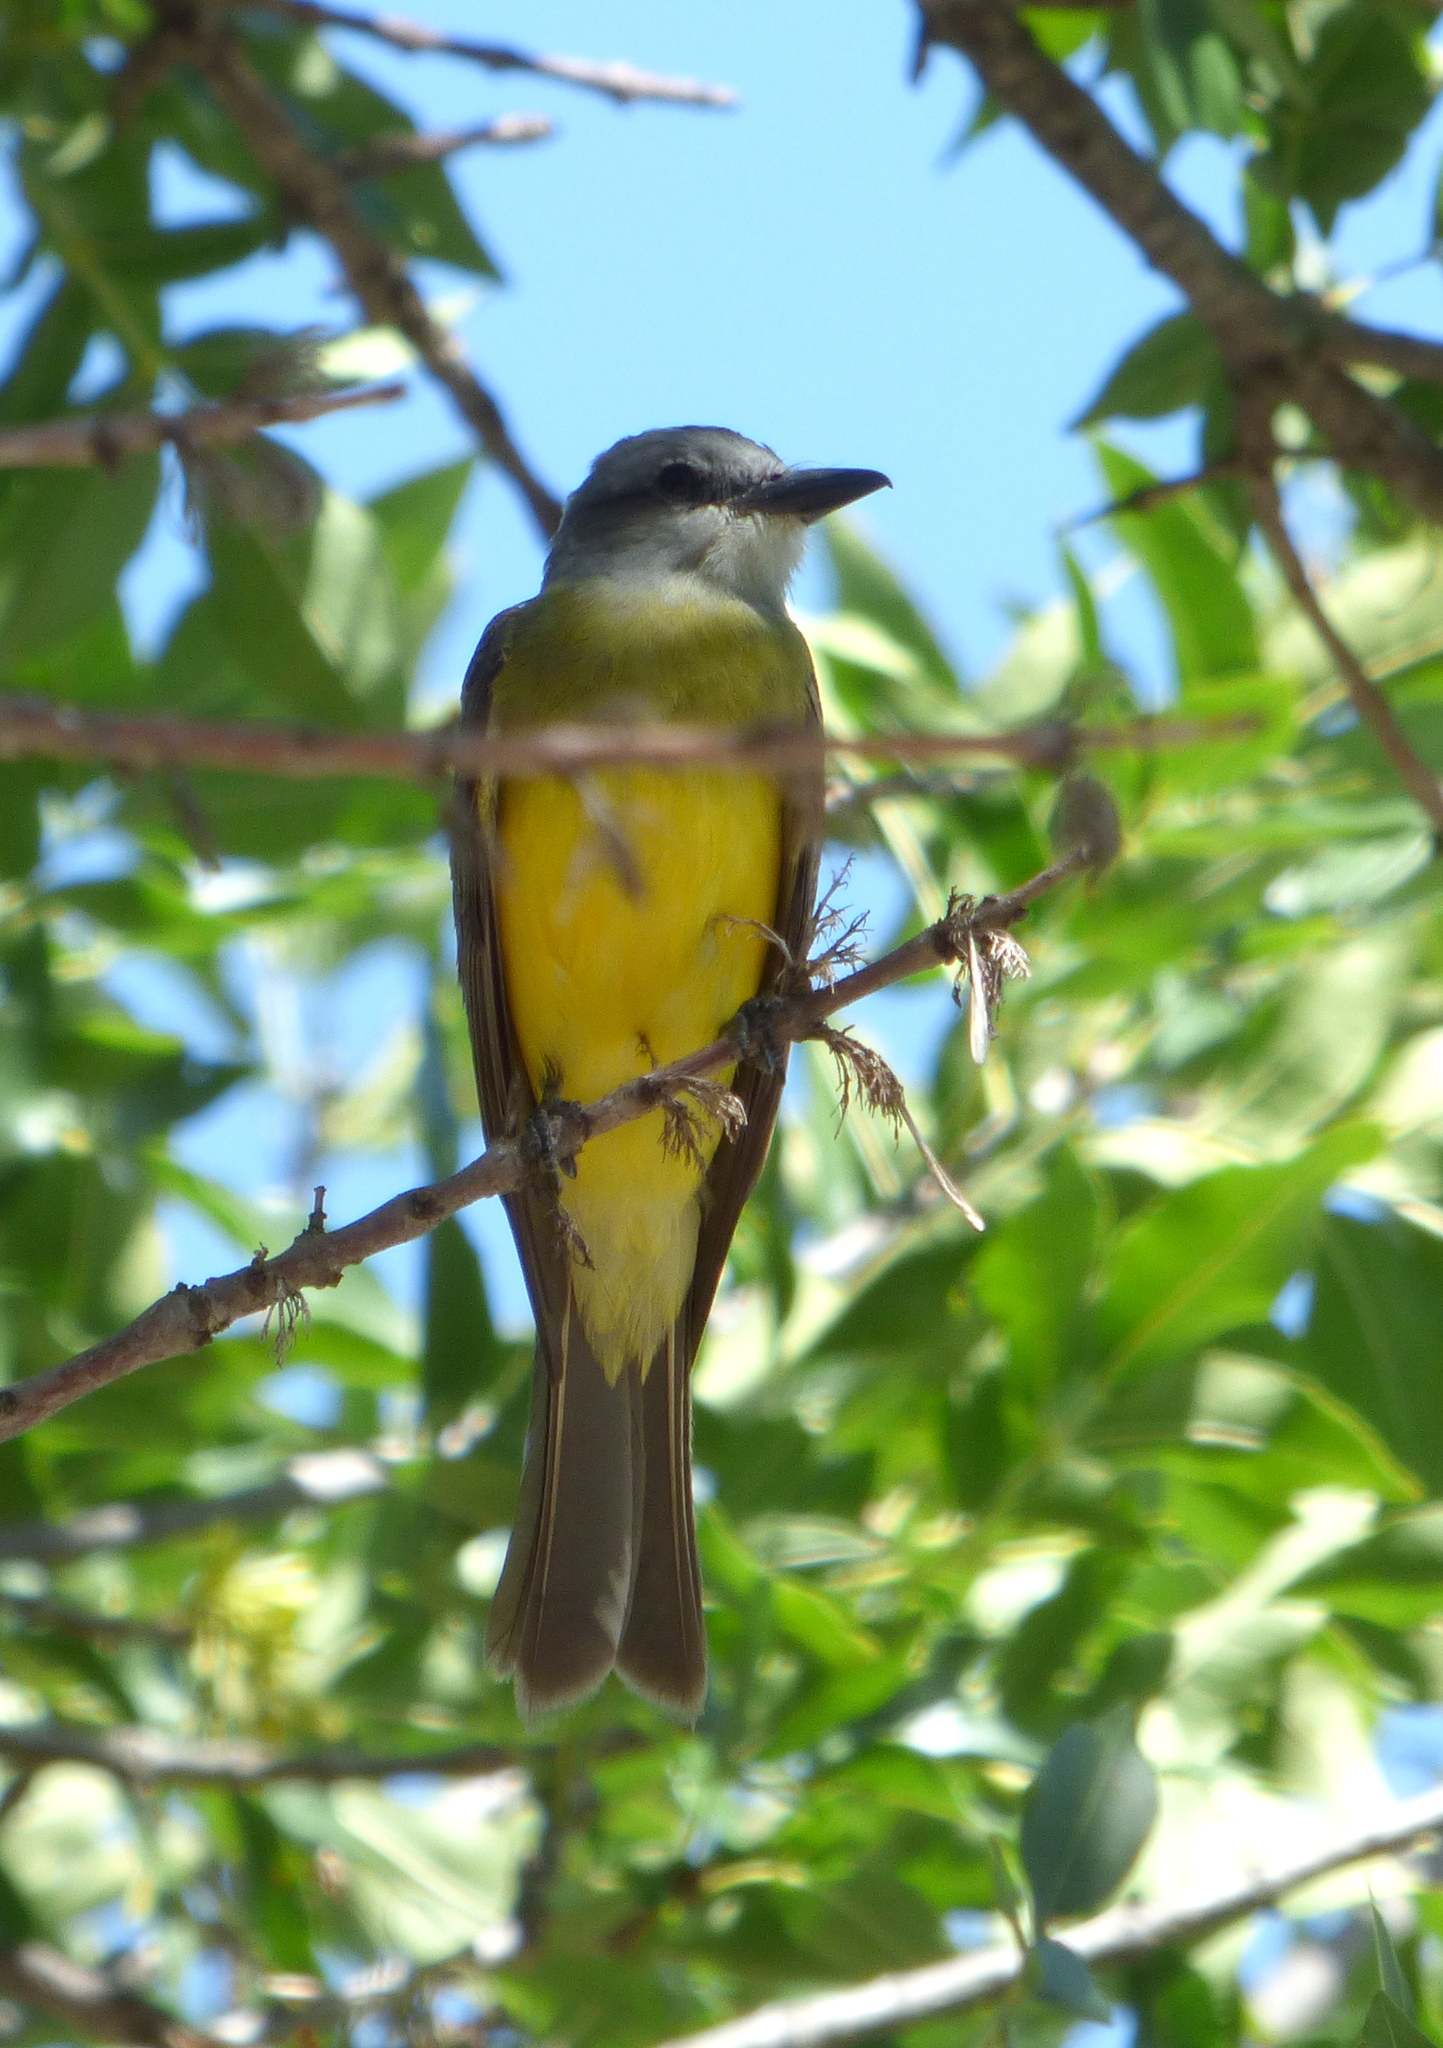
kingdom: Animalia
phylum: Chordata
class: Aves
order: Passeriformes
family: Tyrannidae
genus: Tyrannus
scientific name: Tyrannus melancholicus
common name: Tropical kingbird
